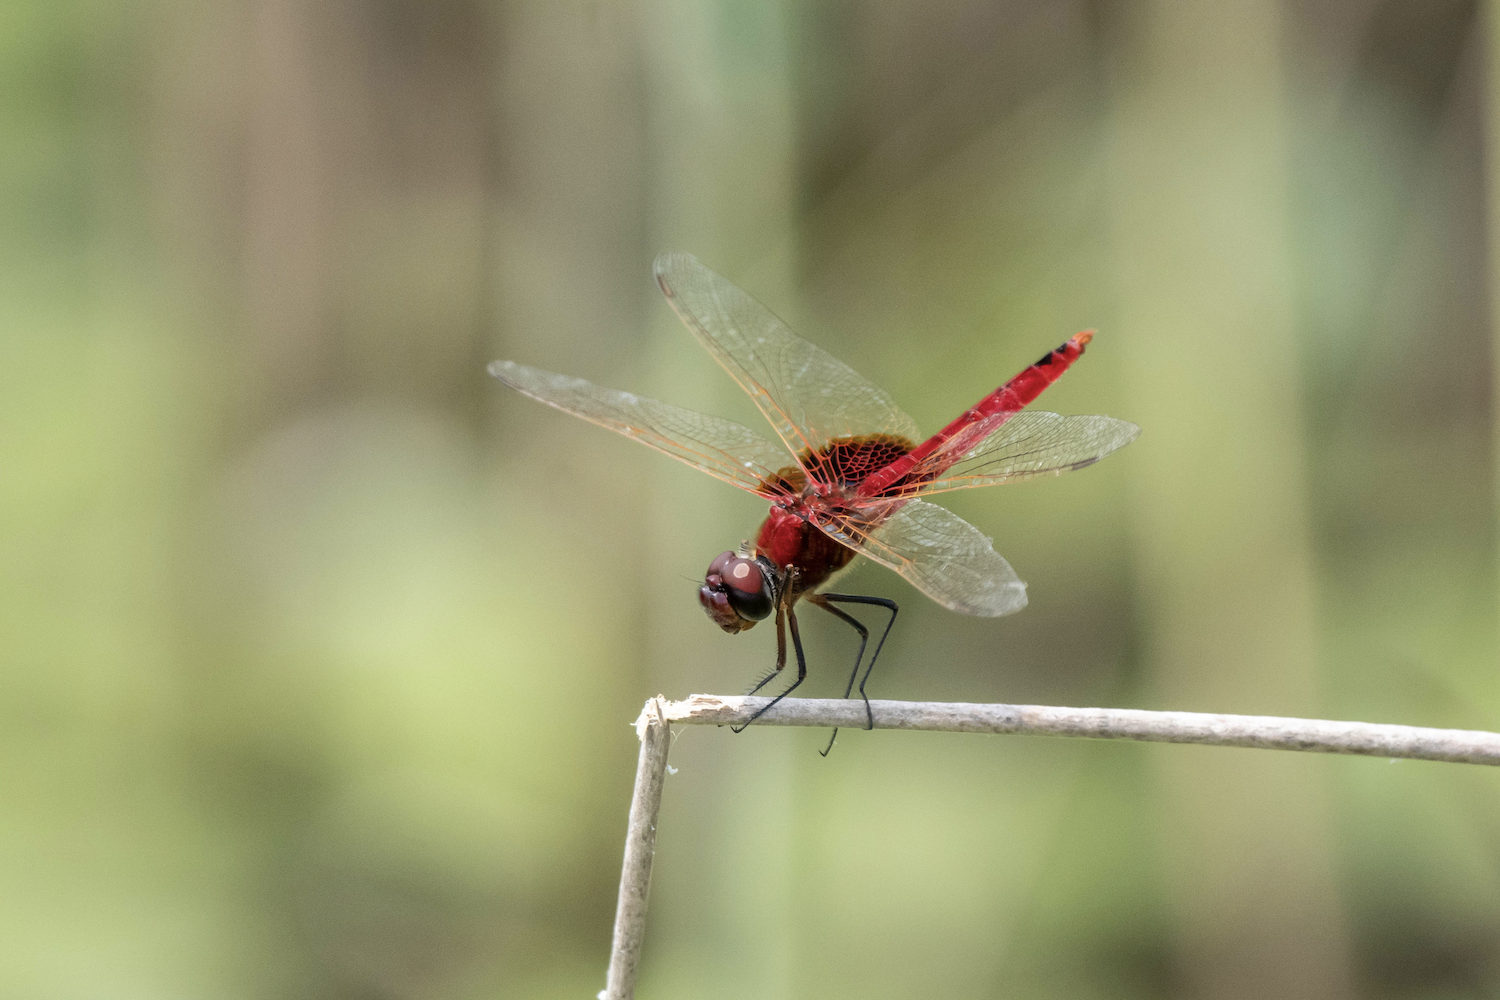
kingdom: Animalia
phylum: Arthropoda
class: Insecta
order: Odonata
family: Libellulidae
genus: Urothemis
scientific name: Urothemis signata
